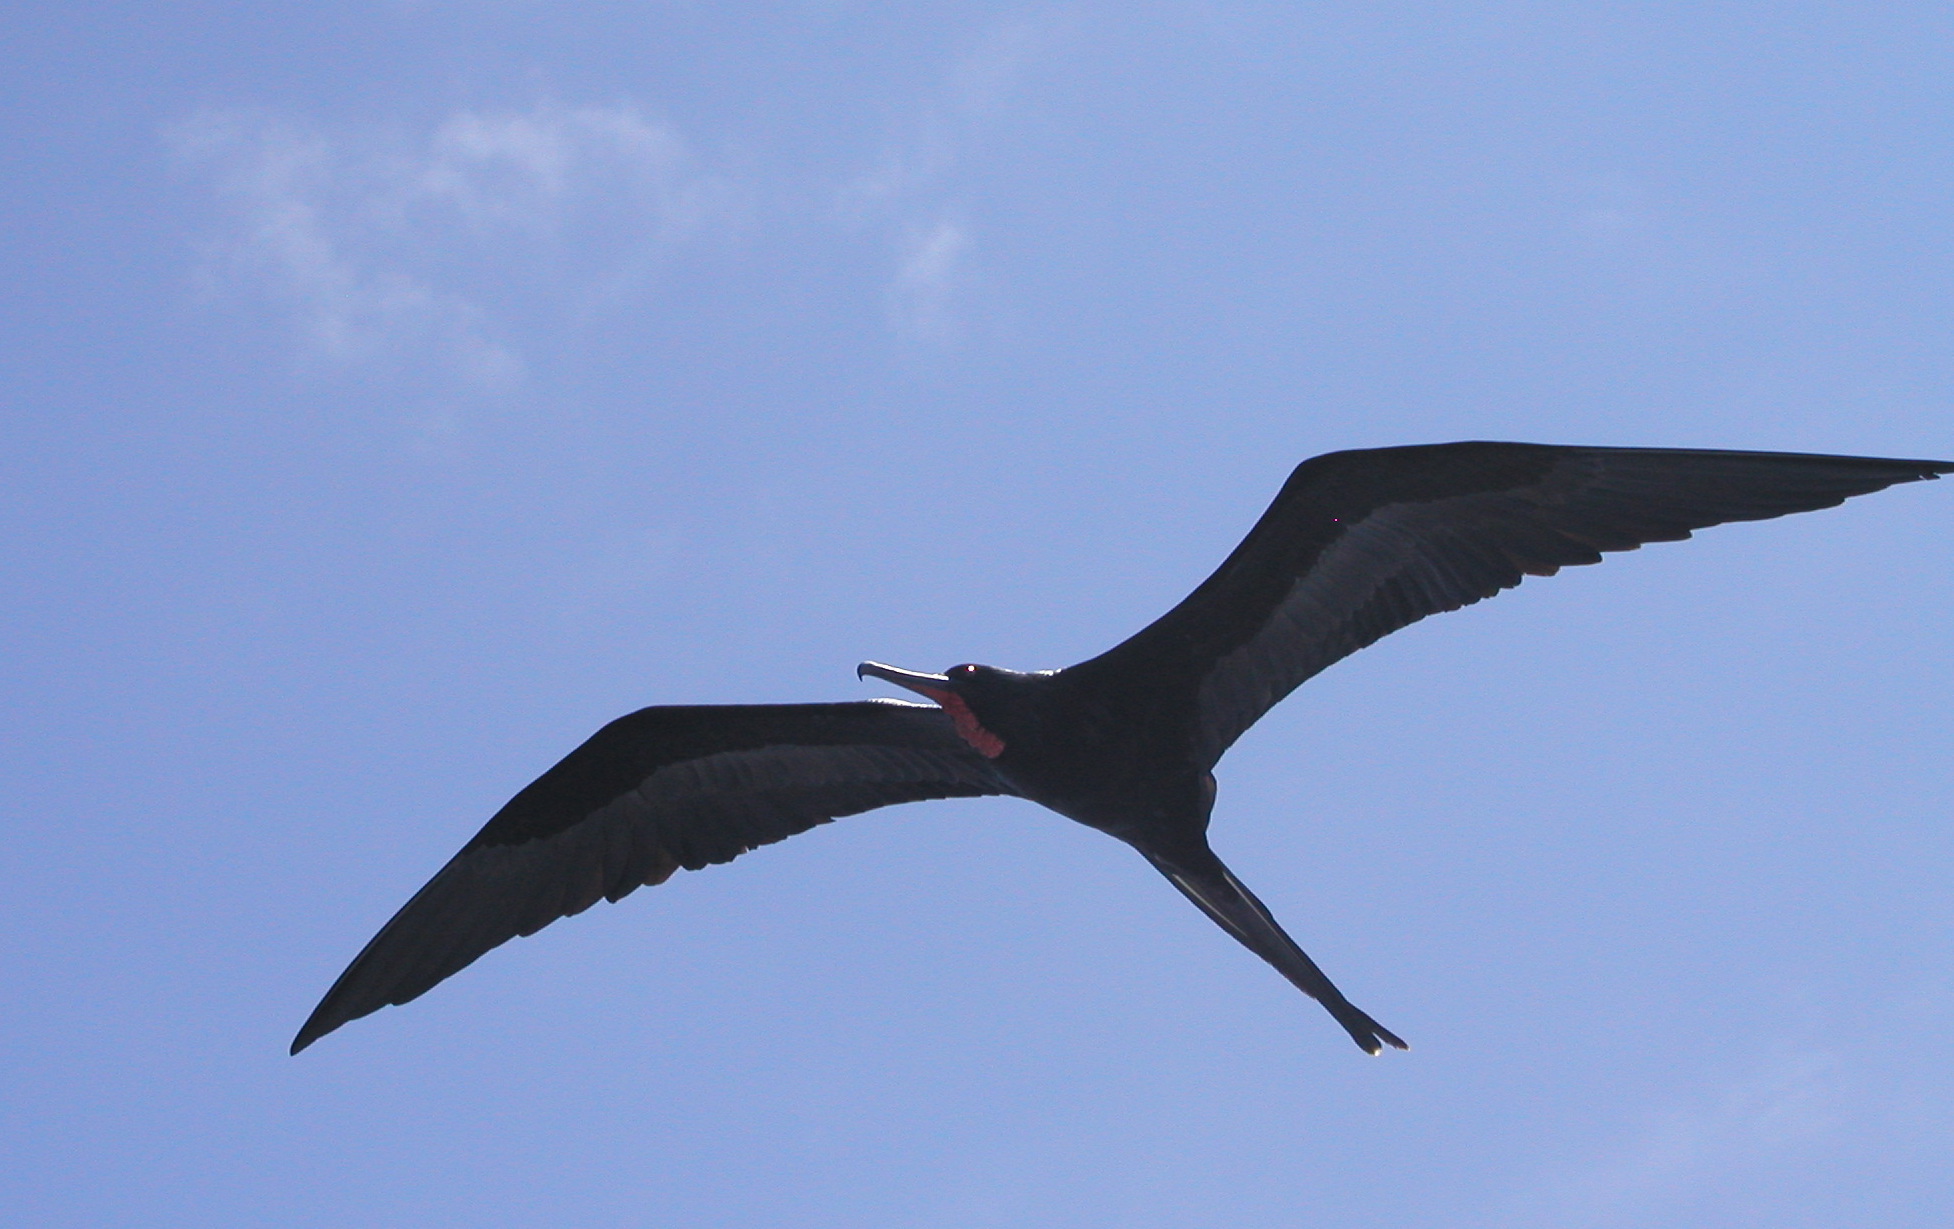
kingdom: Animalia
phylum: Chordata
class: Aves
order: Suliformes
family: Fregatidae
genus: Fregata
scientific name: Fregata magnificens
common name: Magnificent frigatebird
